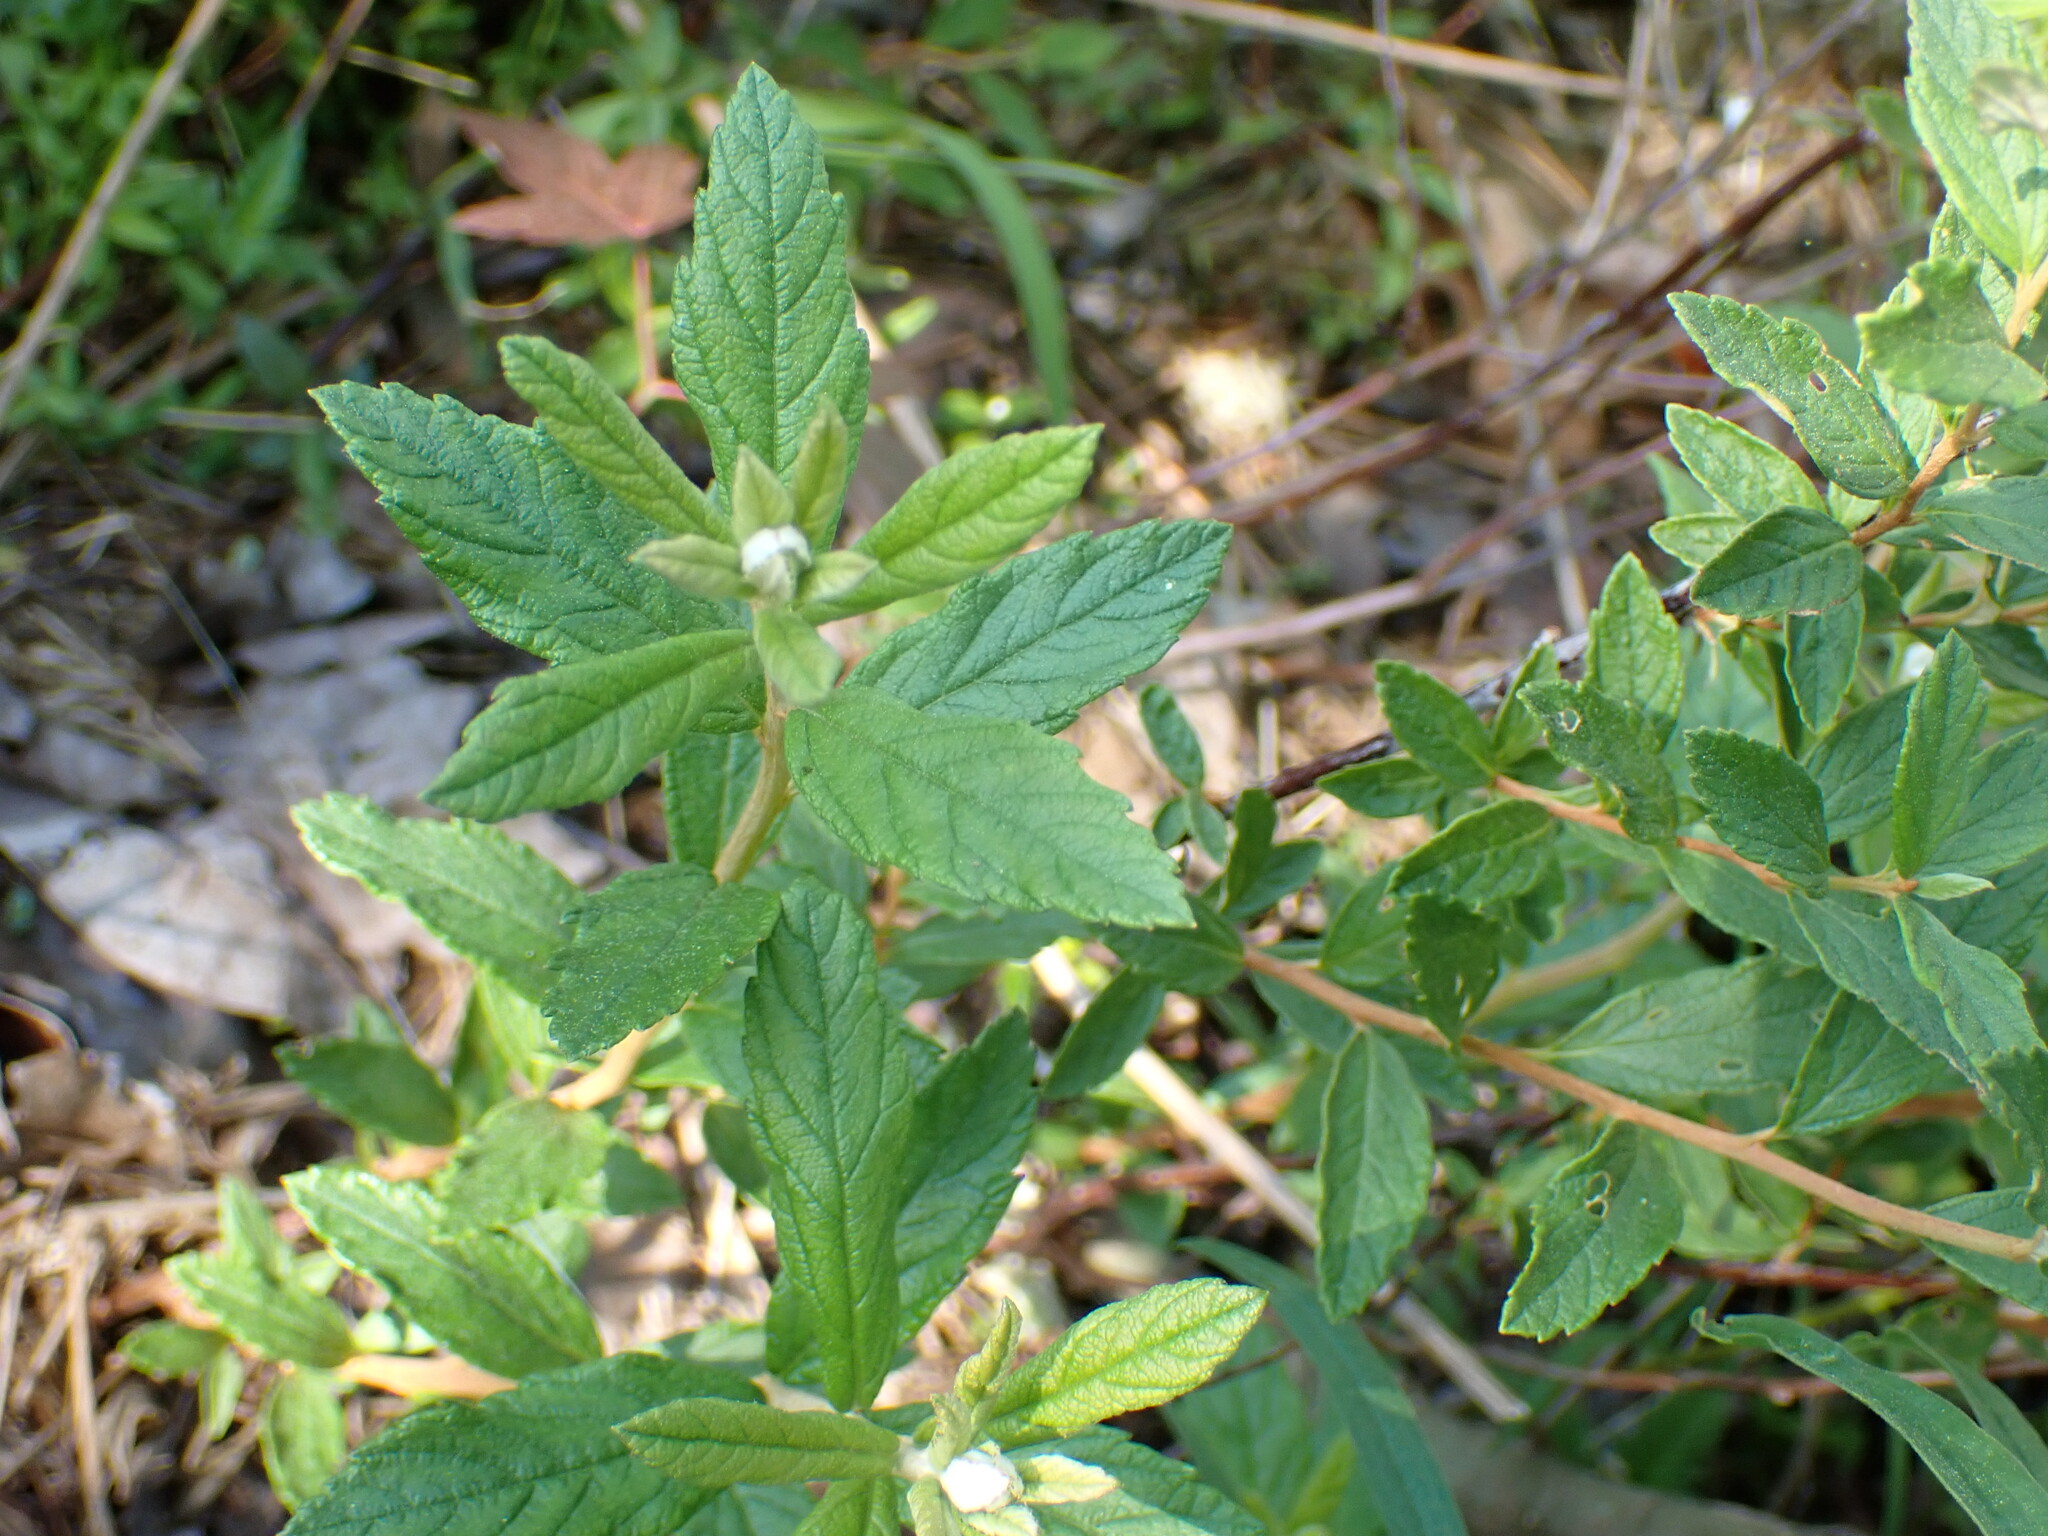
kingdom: Plantae
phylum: Tracheophyta
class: Magnoliopsida
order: Rosales
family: Rosaceae
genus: Spiraea
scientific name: Spiraea tomentosa
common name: Hardhack
